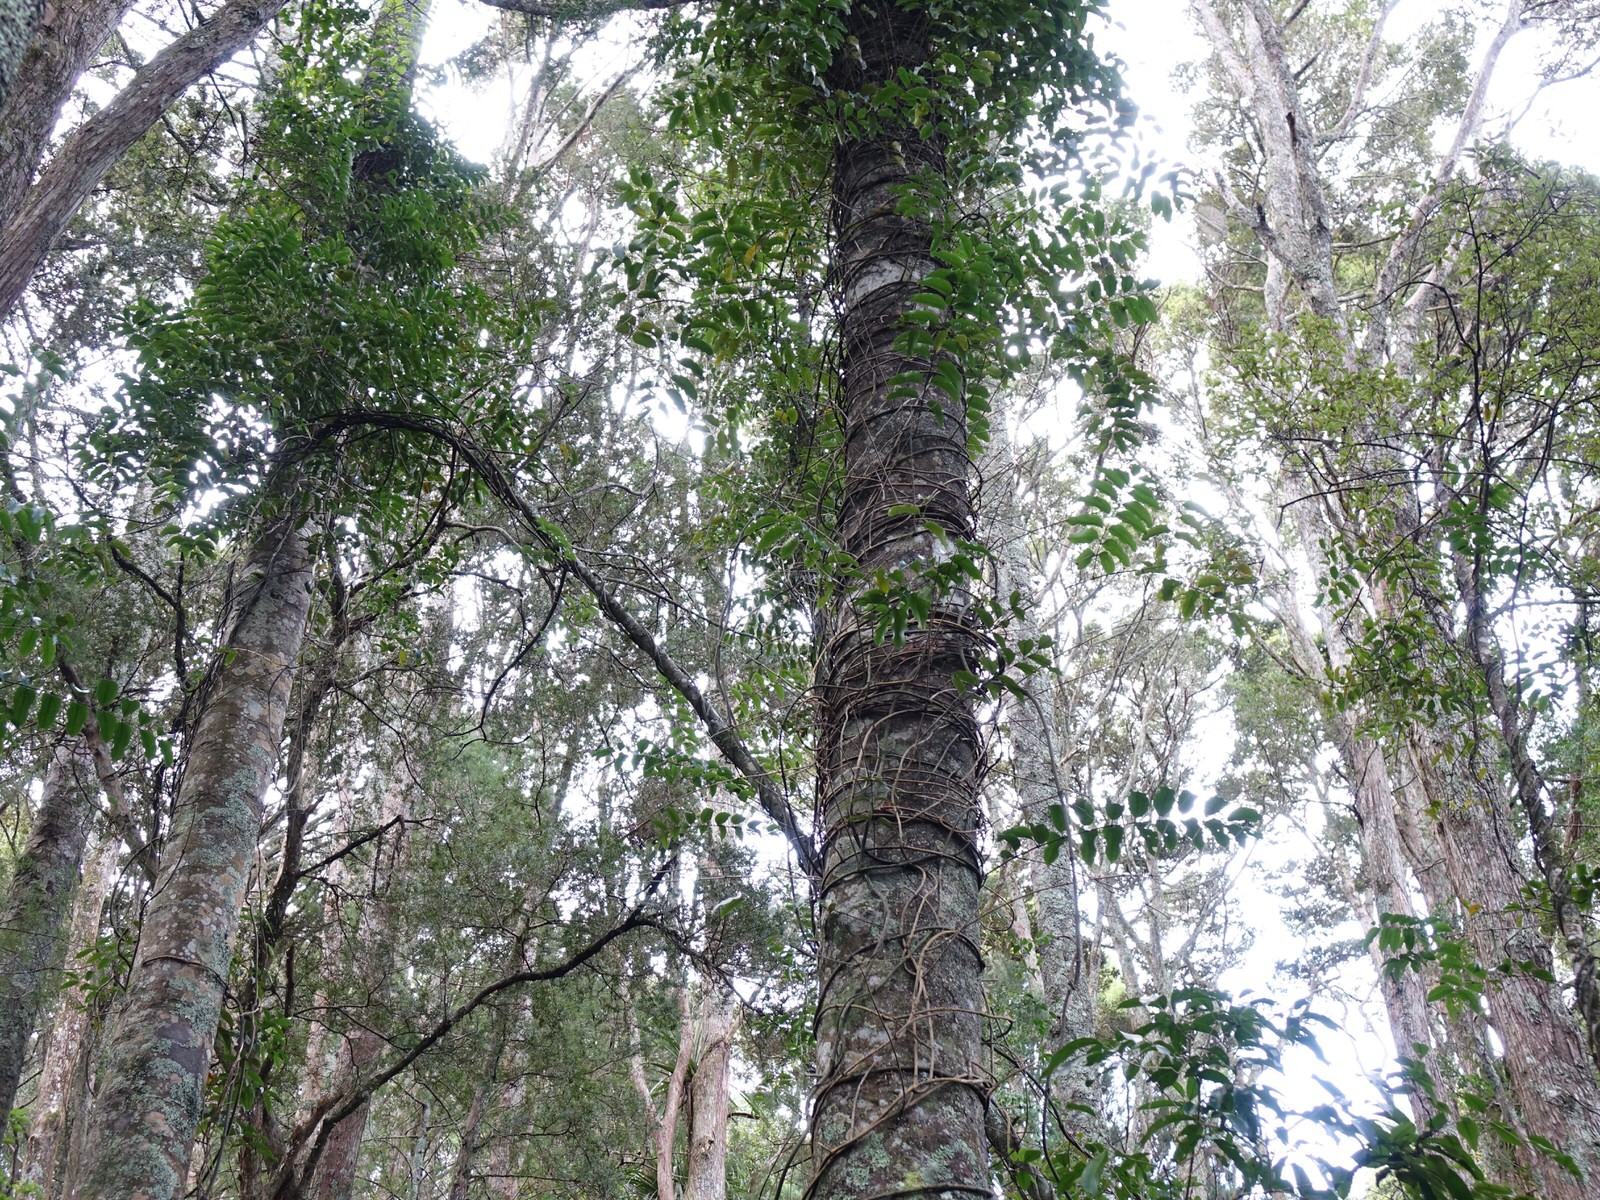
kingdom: Plantae
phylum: Tracheophyta
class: Liliopsida
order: Liliales
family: Ripogonaceae
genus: Ripogonum
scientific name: Ripogonum scandens
